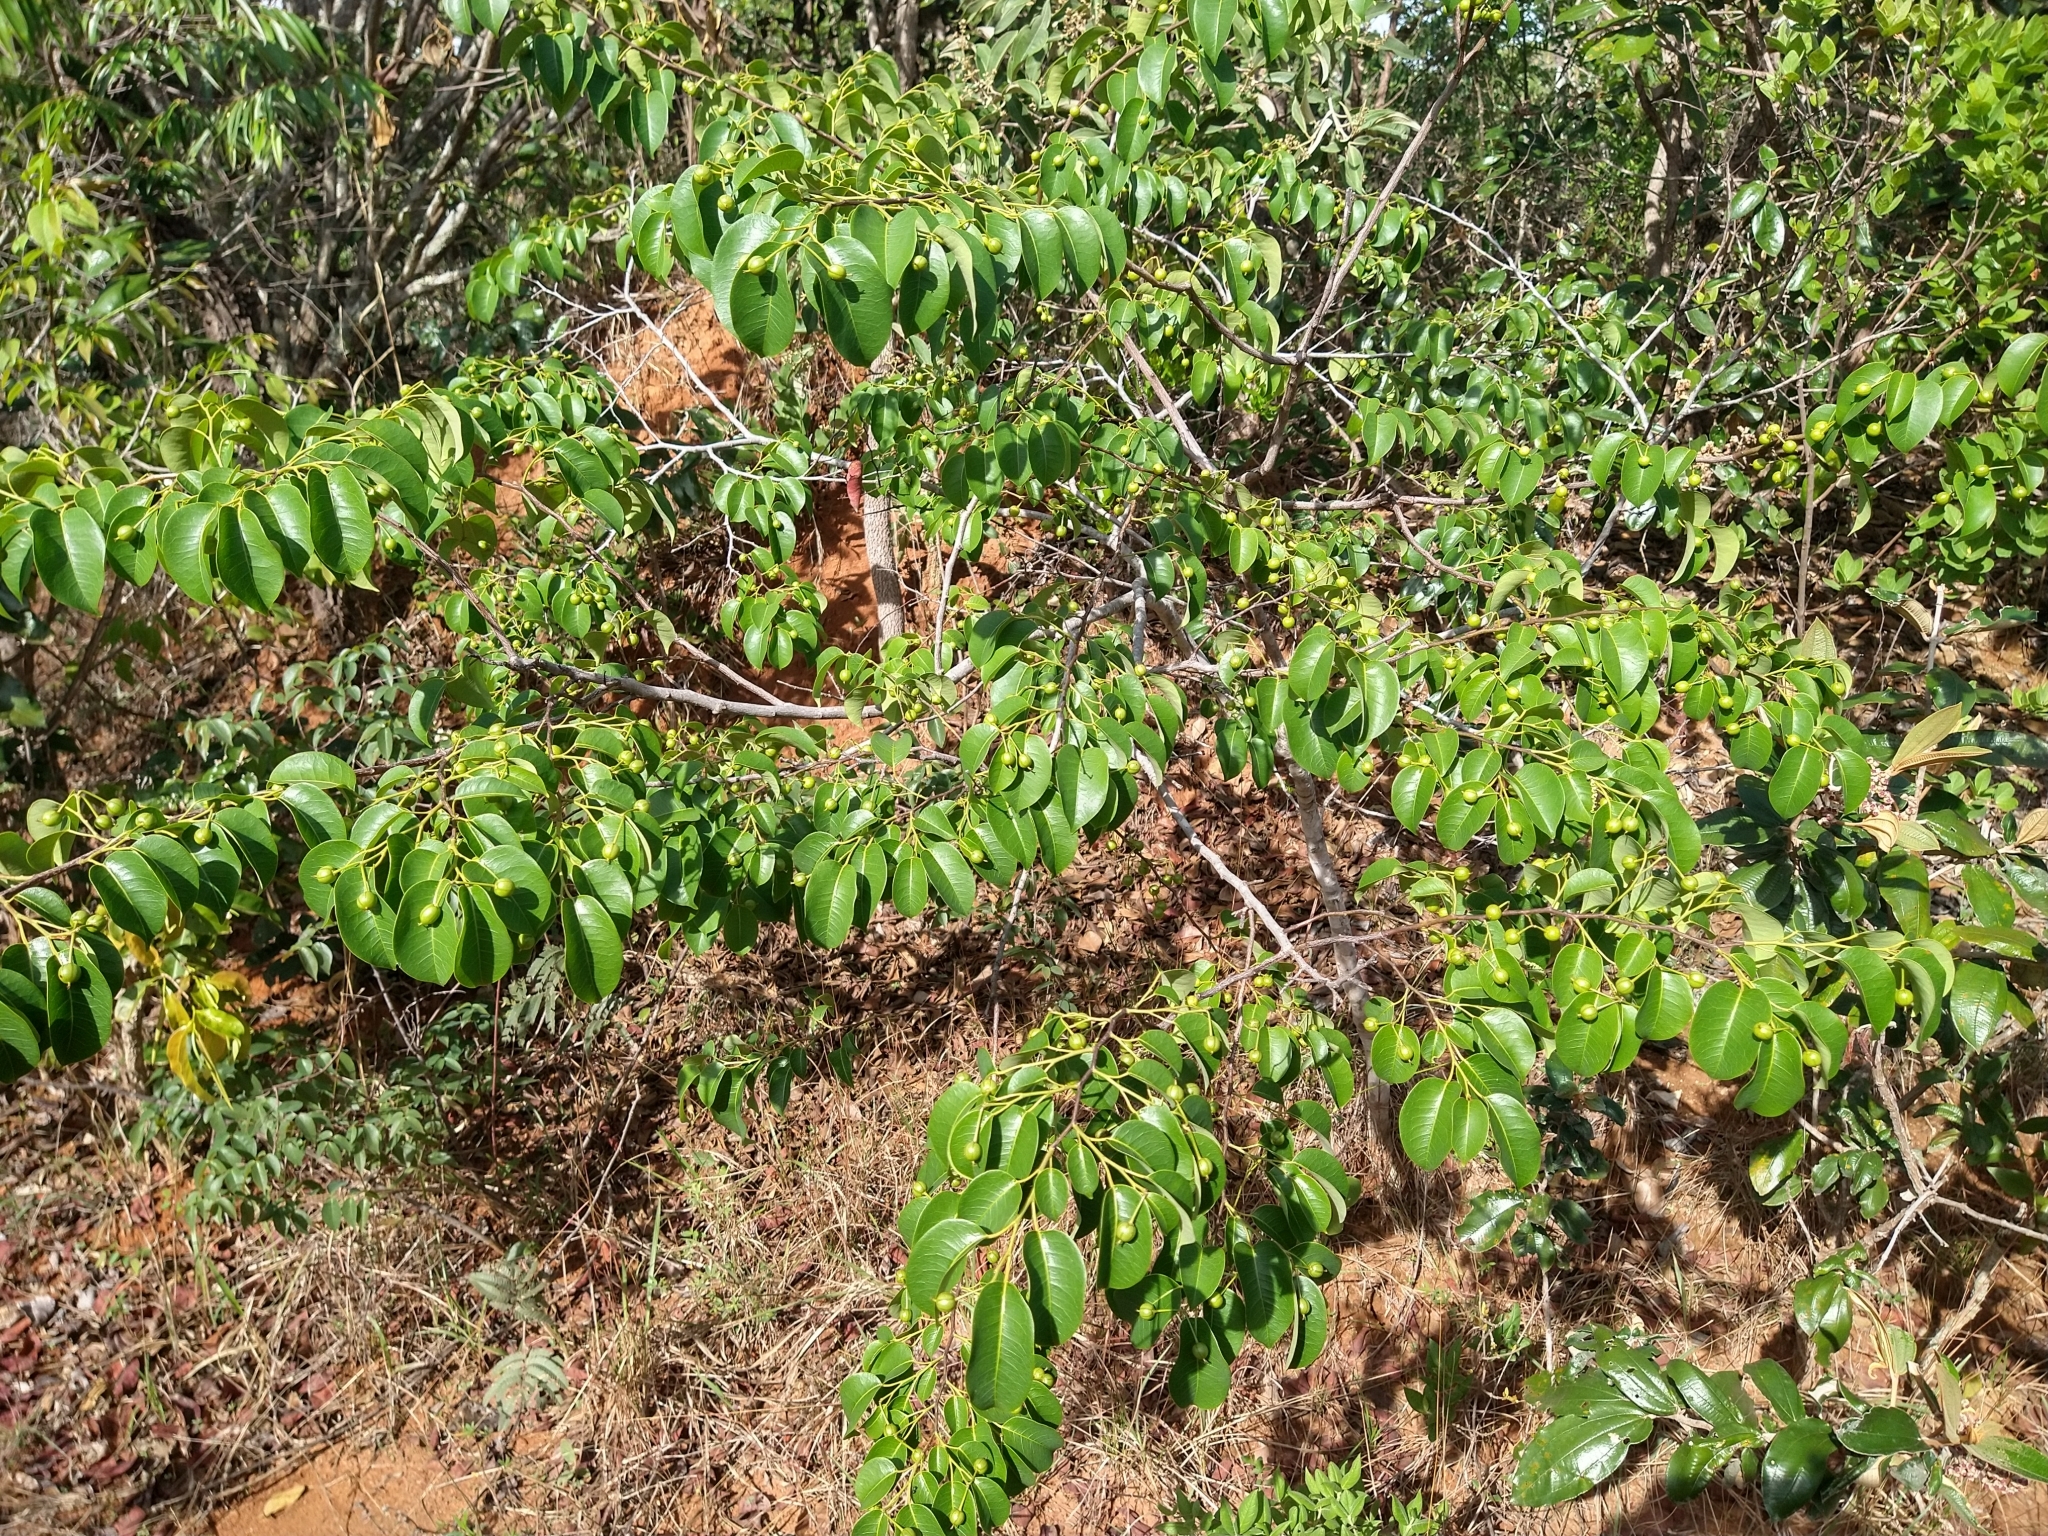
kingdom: Plantae
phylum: Tracheophyta
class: Magnoliopsida
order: Malpighiales
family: Euphorbiaceae
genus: Maprounea
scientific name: Maprounea guianensis
